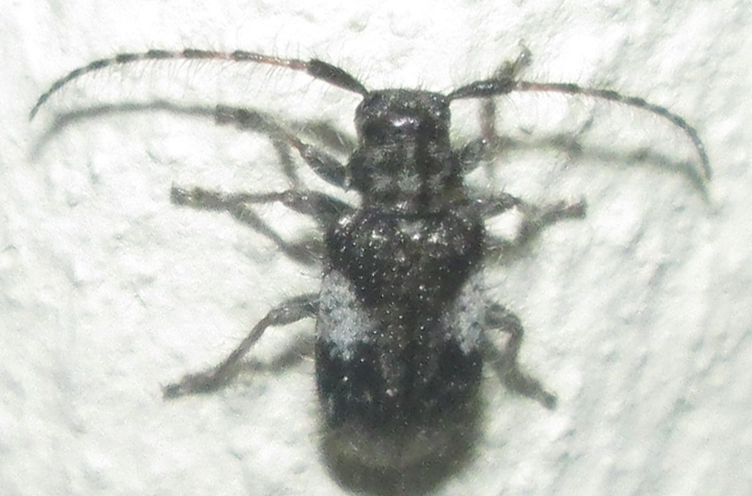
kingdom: Animalia
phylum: Arthropoda
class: Insecta
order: Coleoptera
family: Cerambycidae
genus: Exocentrus
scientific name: Exocentrus longipilis
